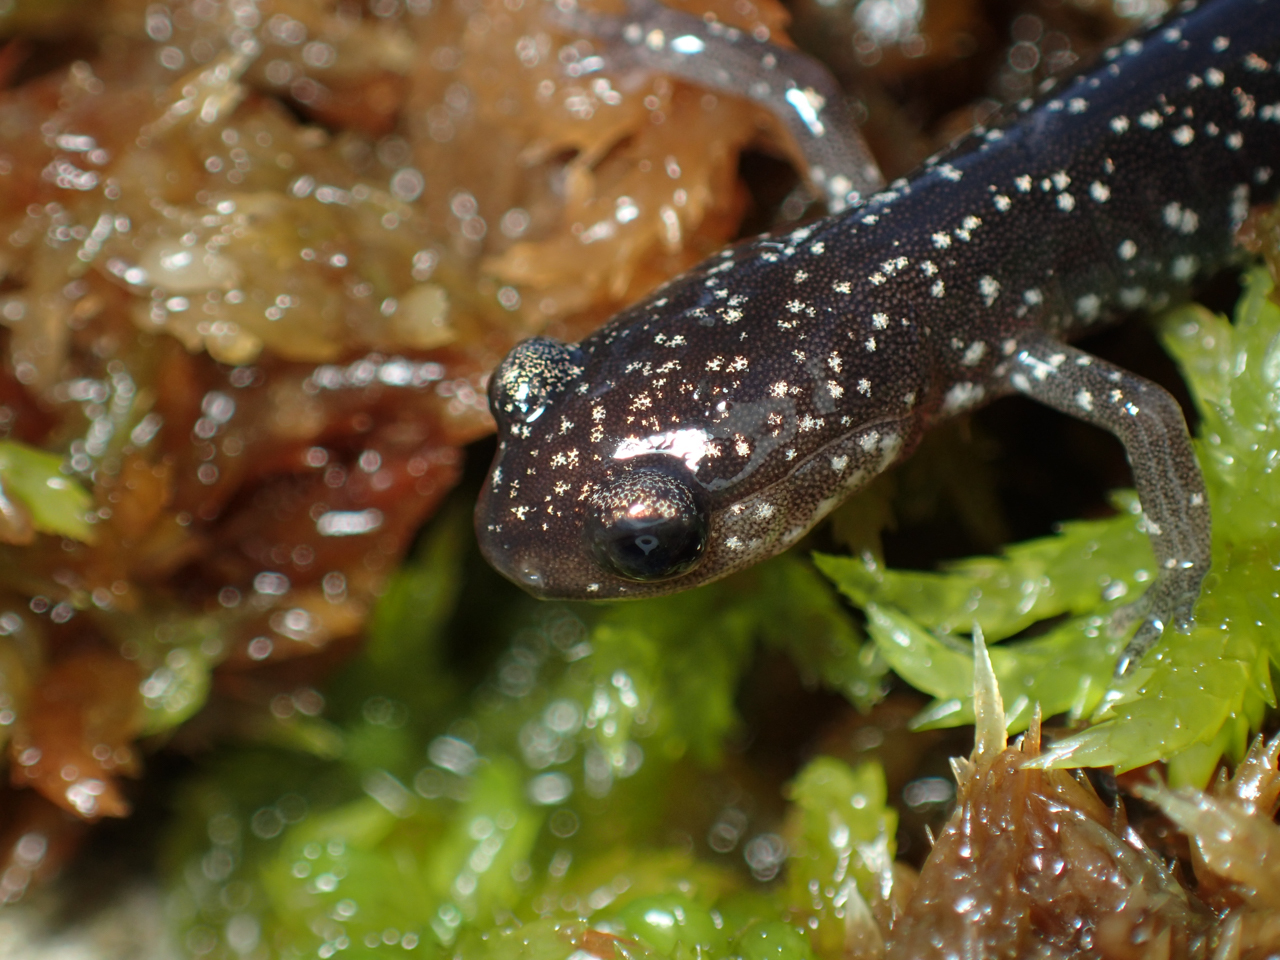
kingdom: Animalia
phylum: Chordata
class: Amphibia
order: Caudata
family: Plethodontidae
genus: Plethodon
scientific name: Plethodon glutinosus
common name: Northern slimy salamander
